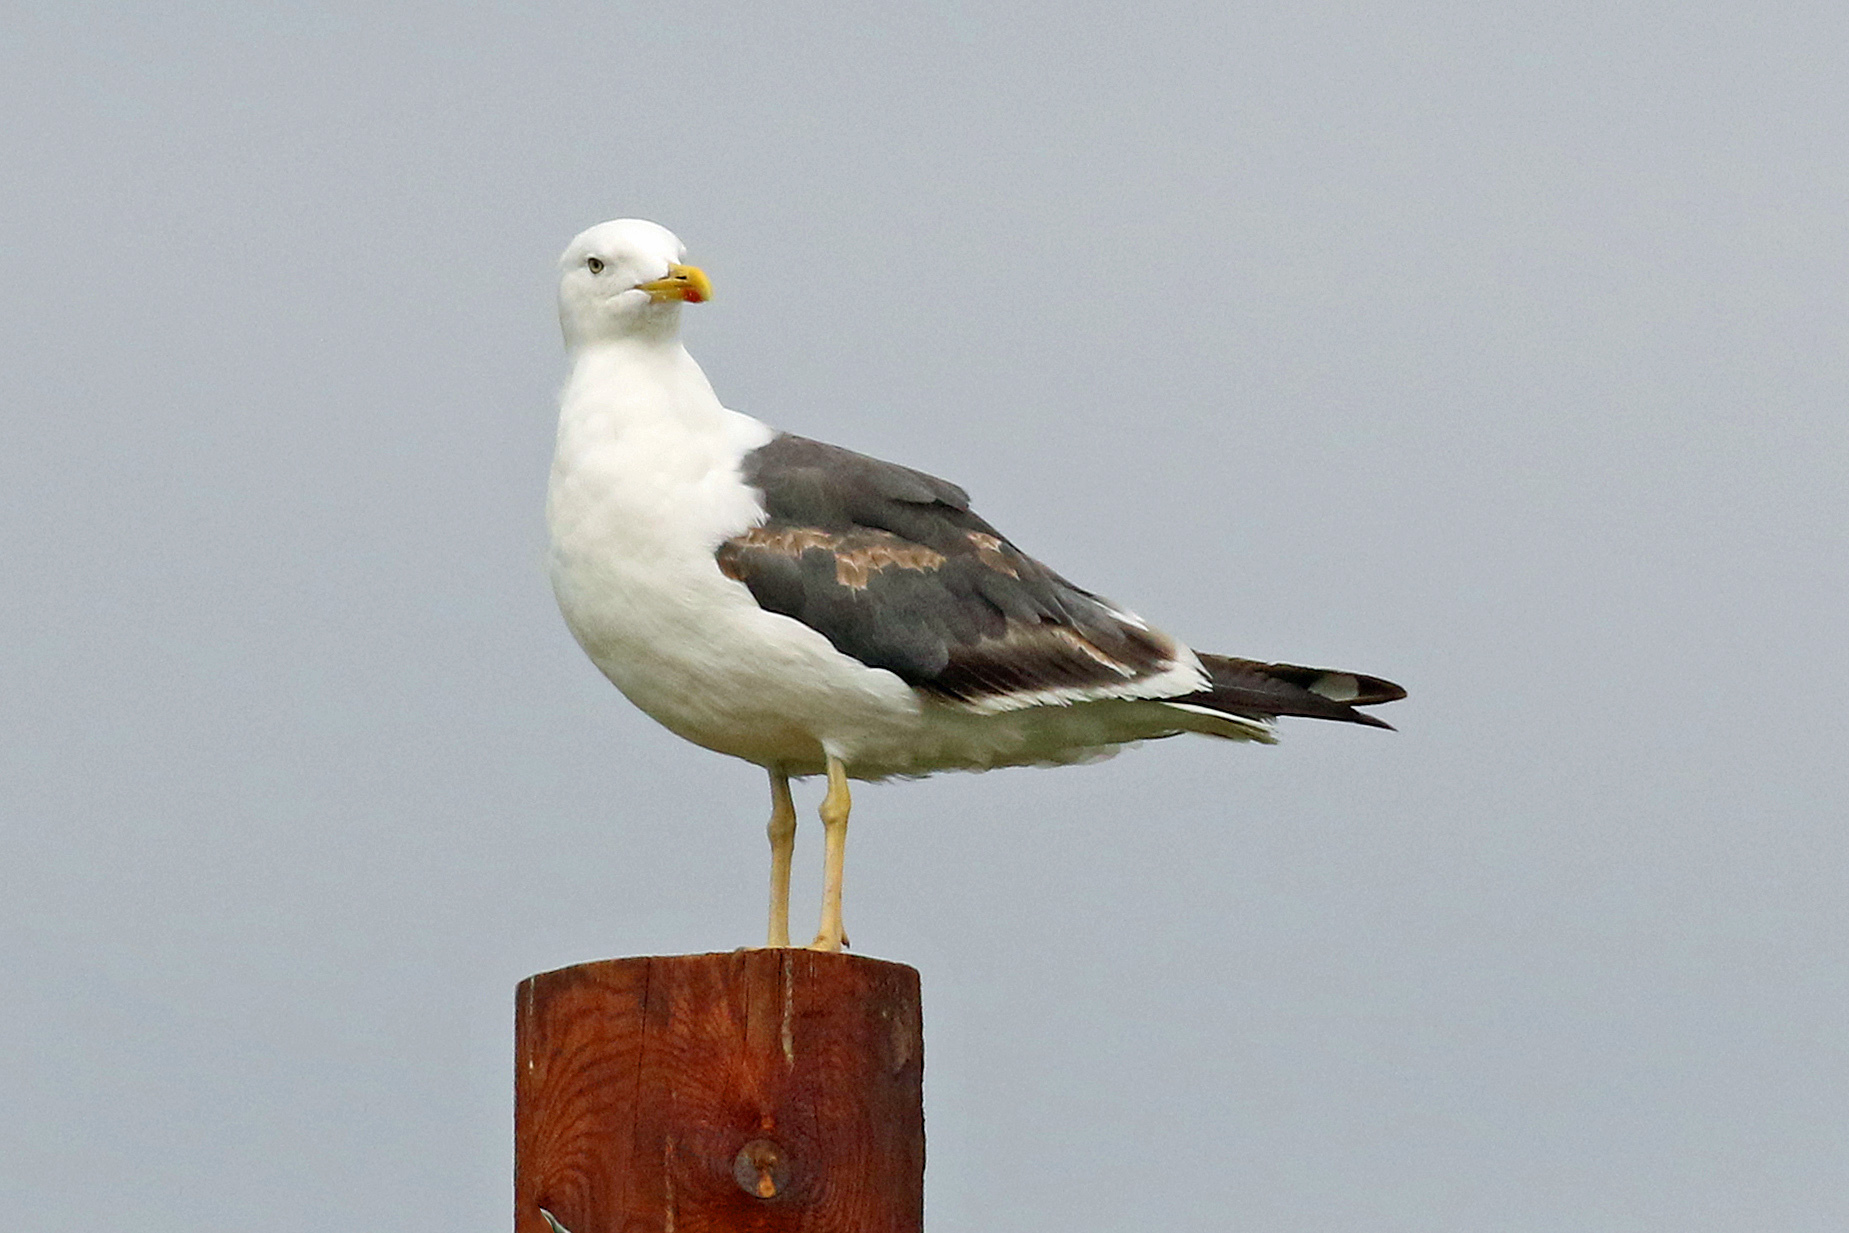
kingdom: Animalia
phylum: Chordata
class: Aves
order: Charadriiformes
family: Laridae
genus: Larus
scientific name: Larus fuscus
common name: Lesser black-backed gull
